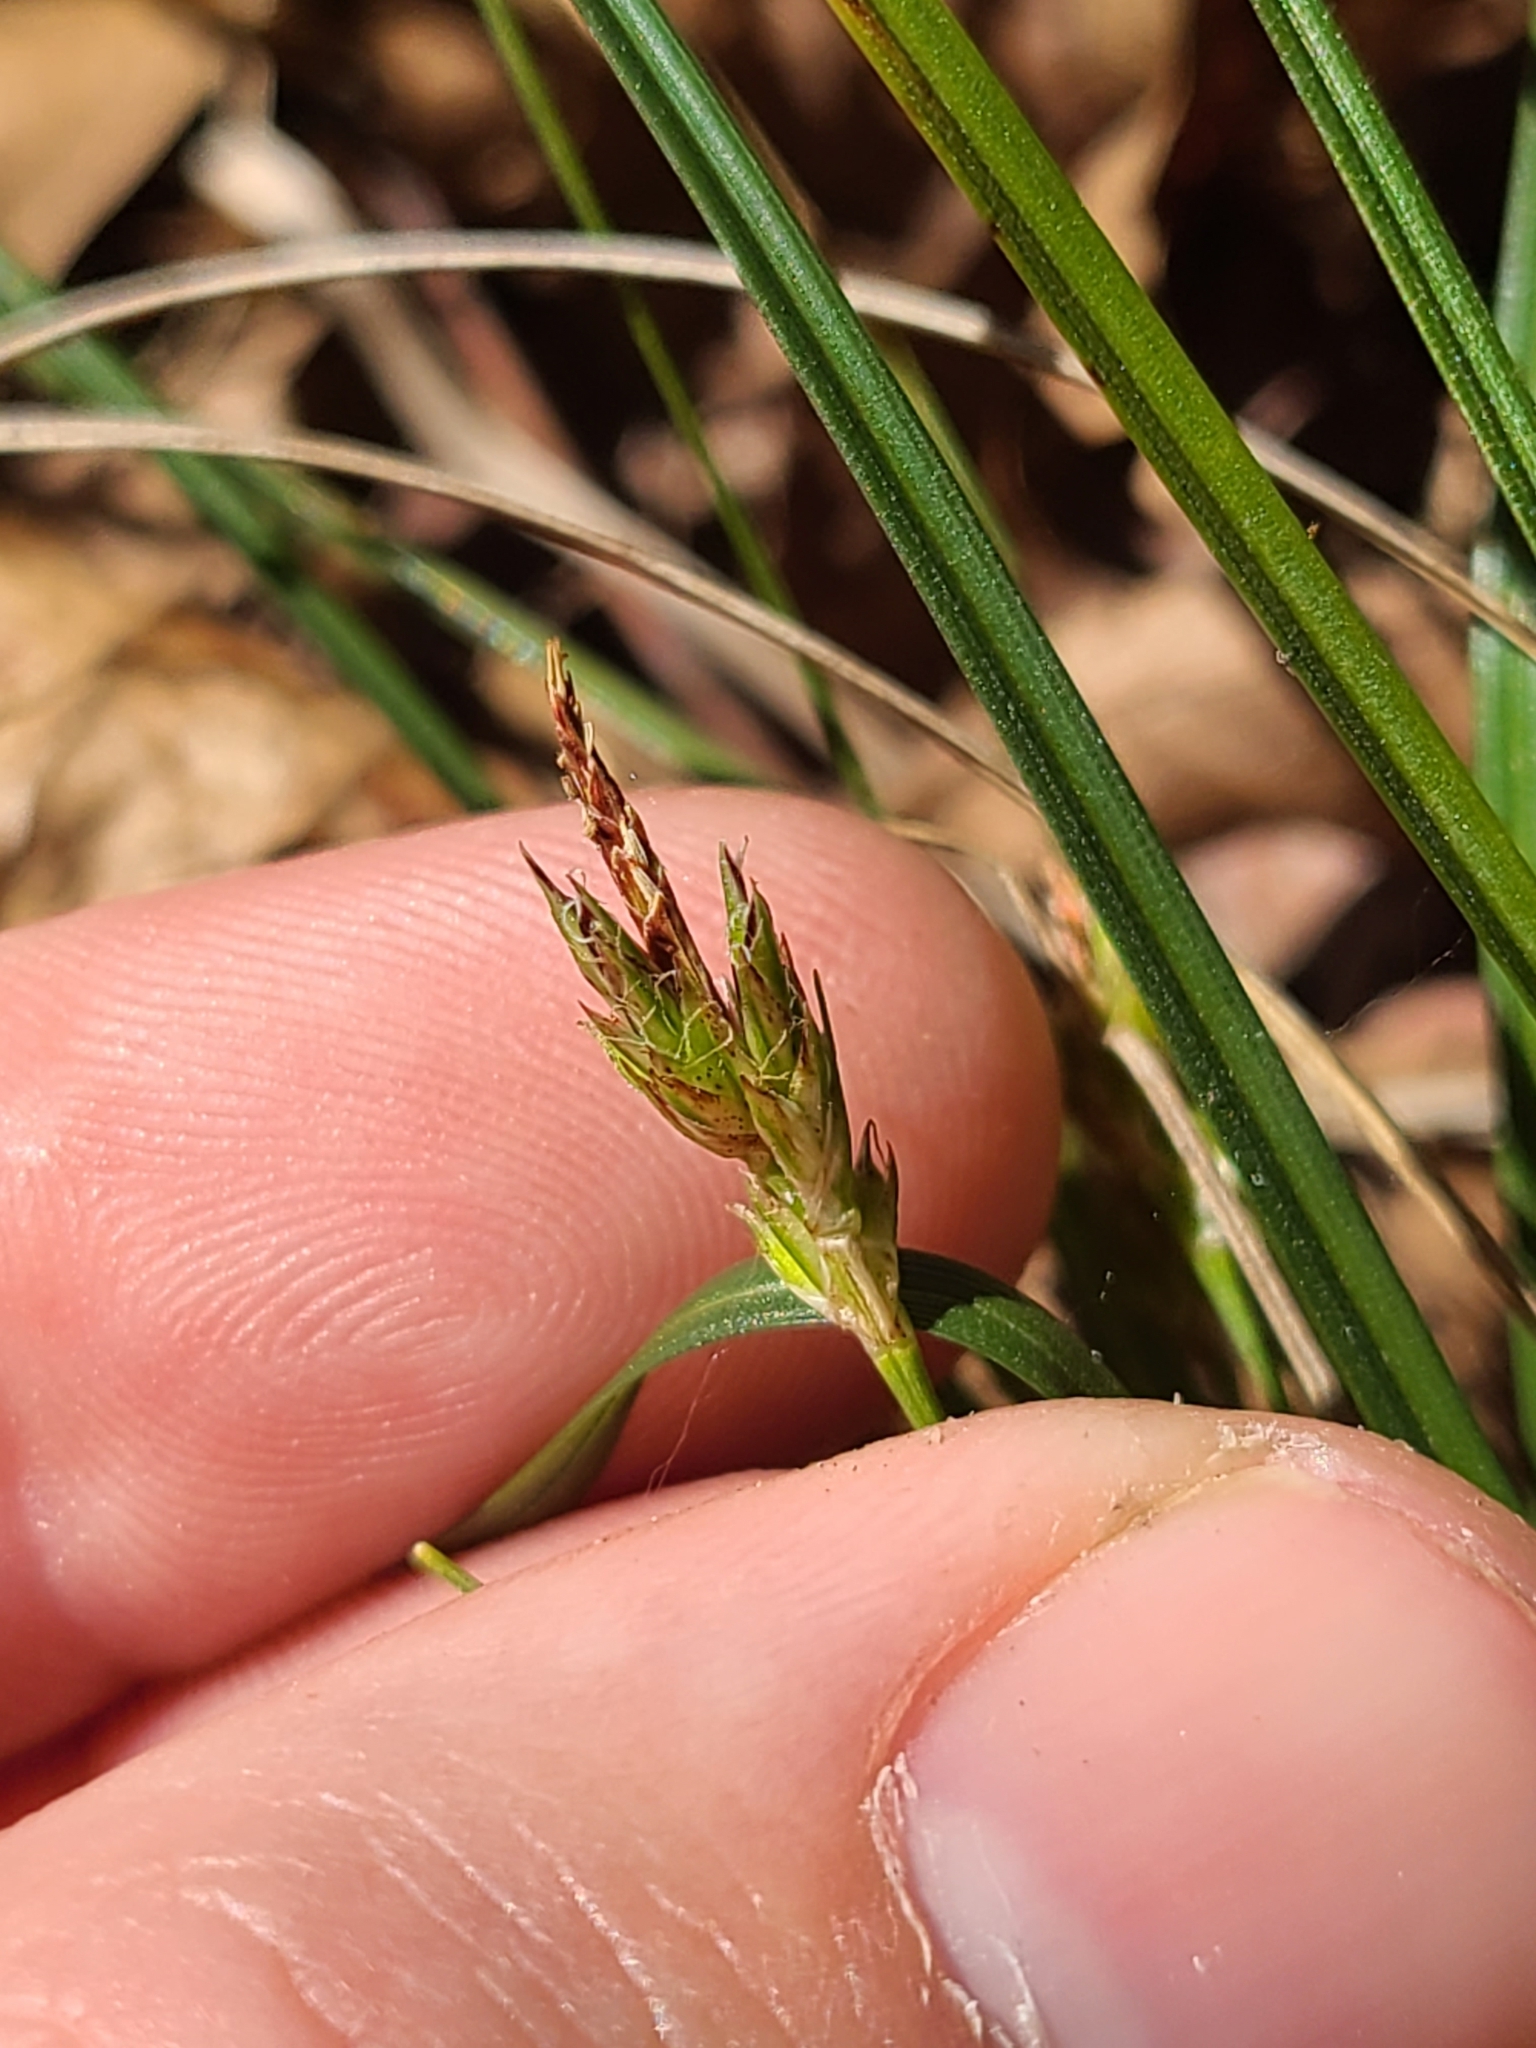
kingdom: Plantae
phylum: Tracheophyta
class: Liliopsida
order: Poales
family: Cyperaceae
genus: Carex
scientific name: Carex nigromarginata
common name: Black-edged sedge
